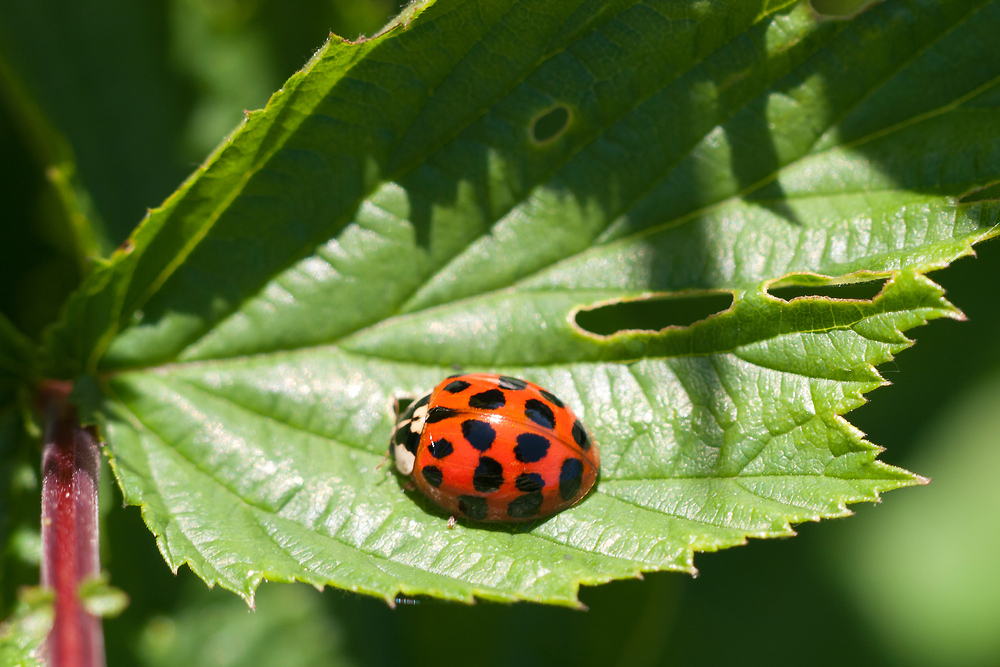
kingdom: Animalia
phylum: Arthropoda
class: Insecta
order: Coleoptera
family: Coccinellidae
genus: Harmonia
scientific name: Harmonia axyridis
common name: Harlequin ladybird
